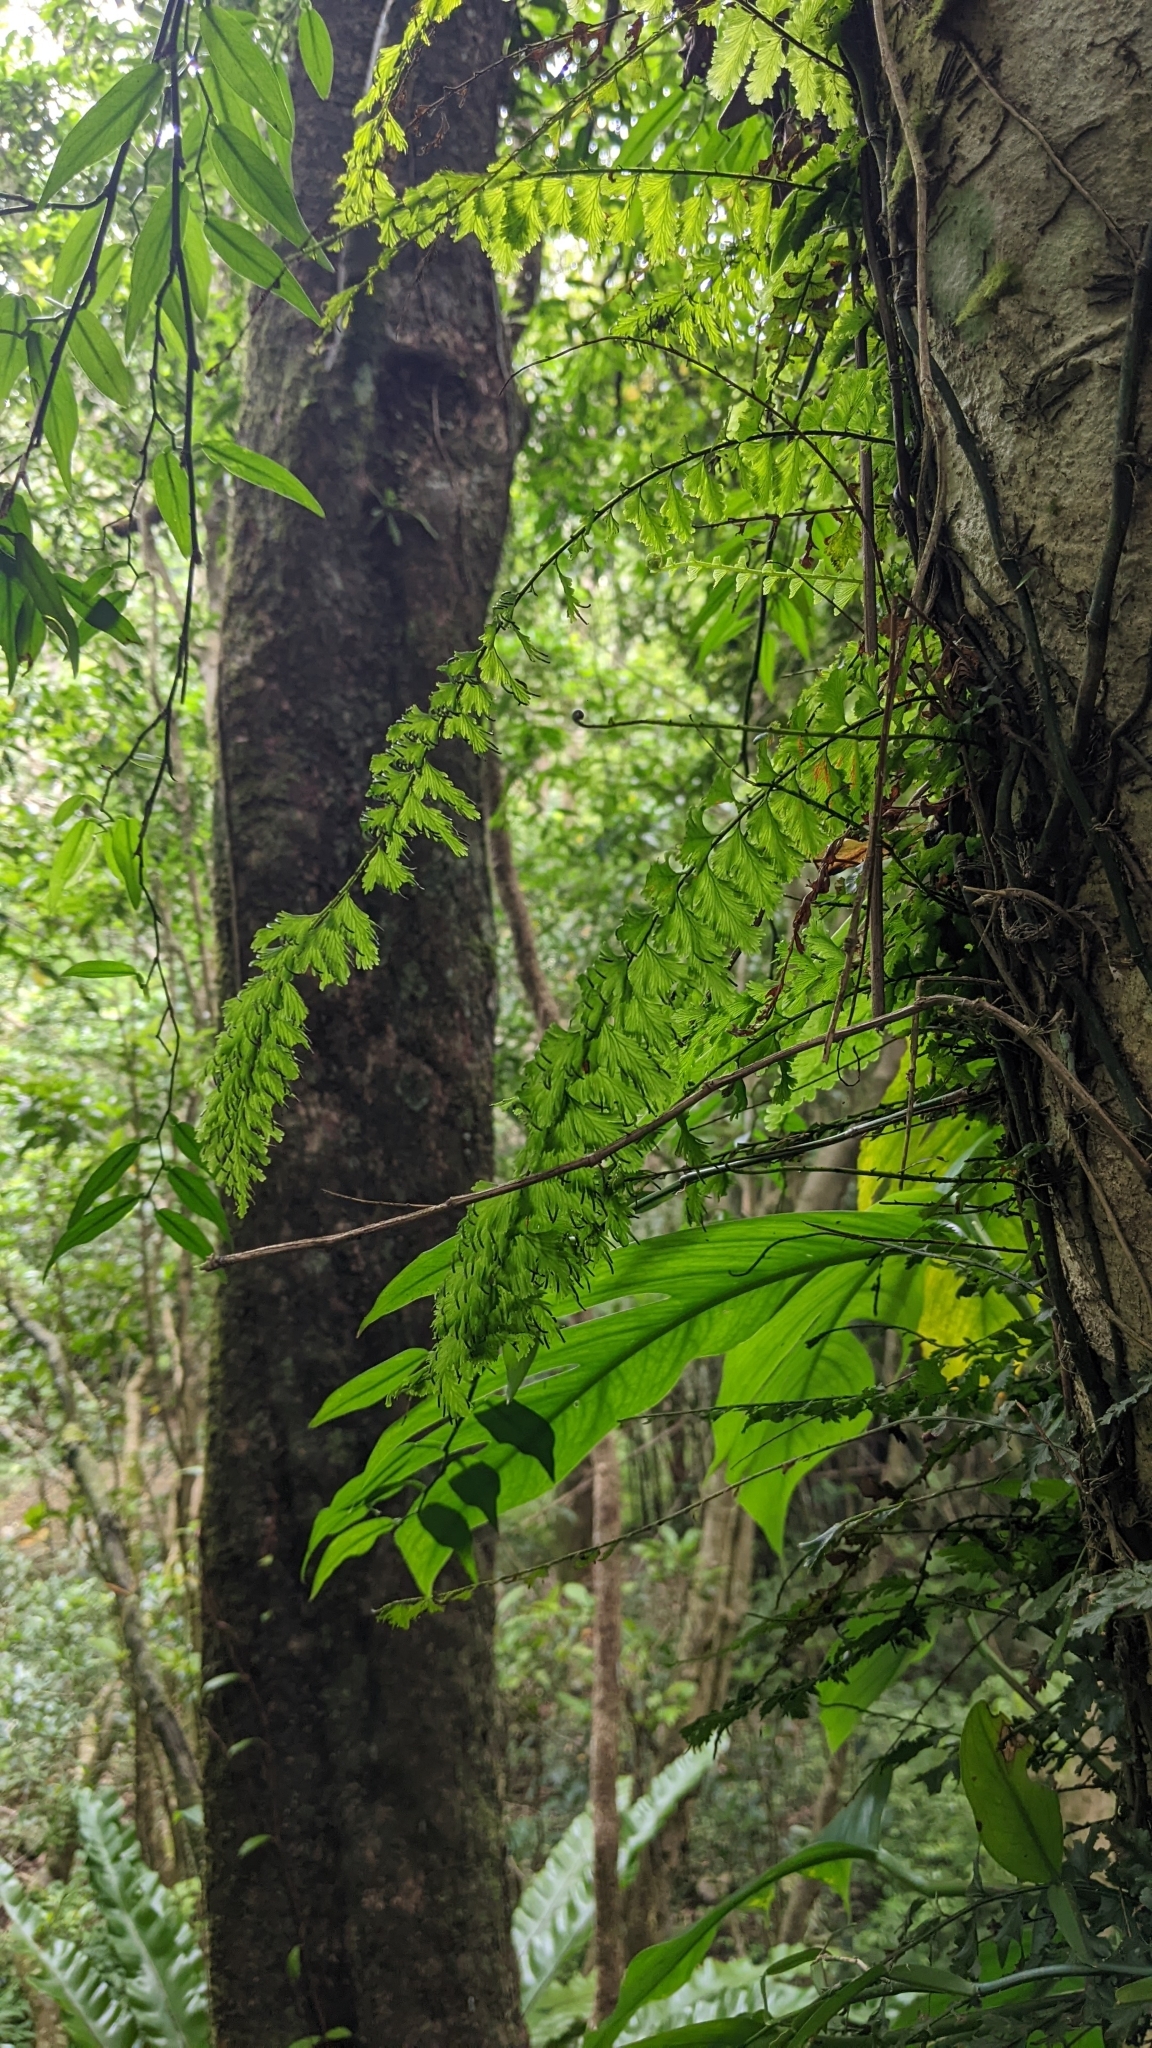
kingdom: Plantae
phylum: Tracheophyta
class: Polypodiopsida
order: Hymenophyllales
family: Hymenophyllaceae
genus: Vandenboschia
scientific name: Vandenboschia auriculata
